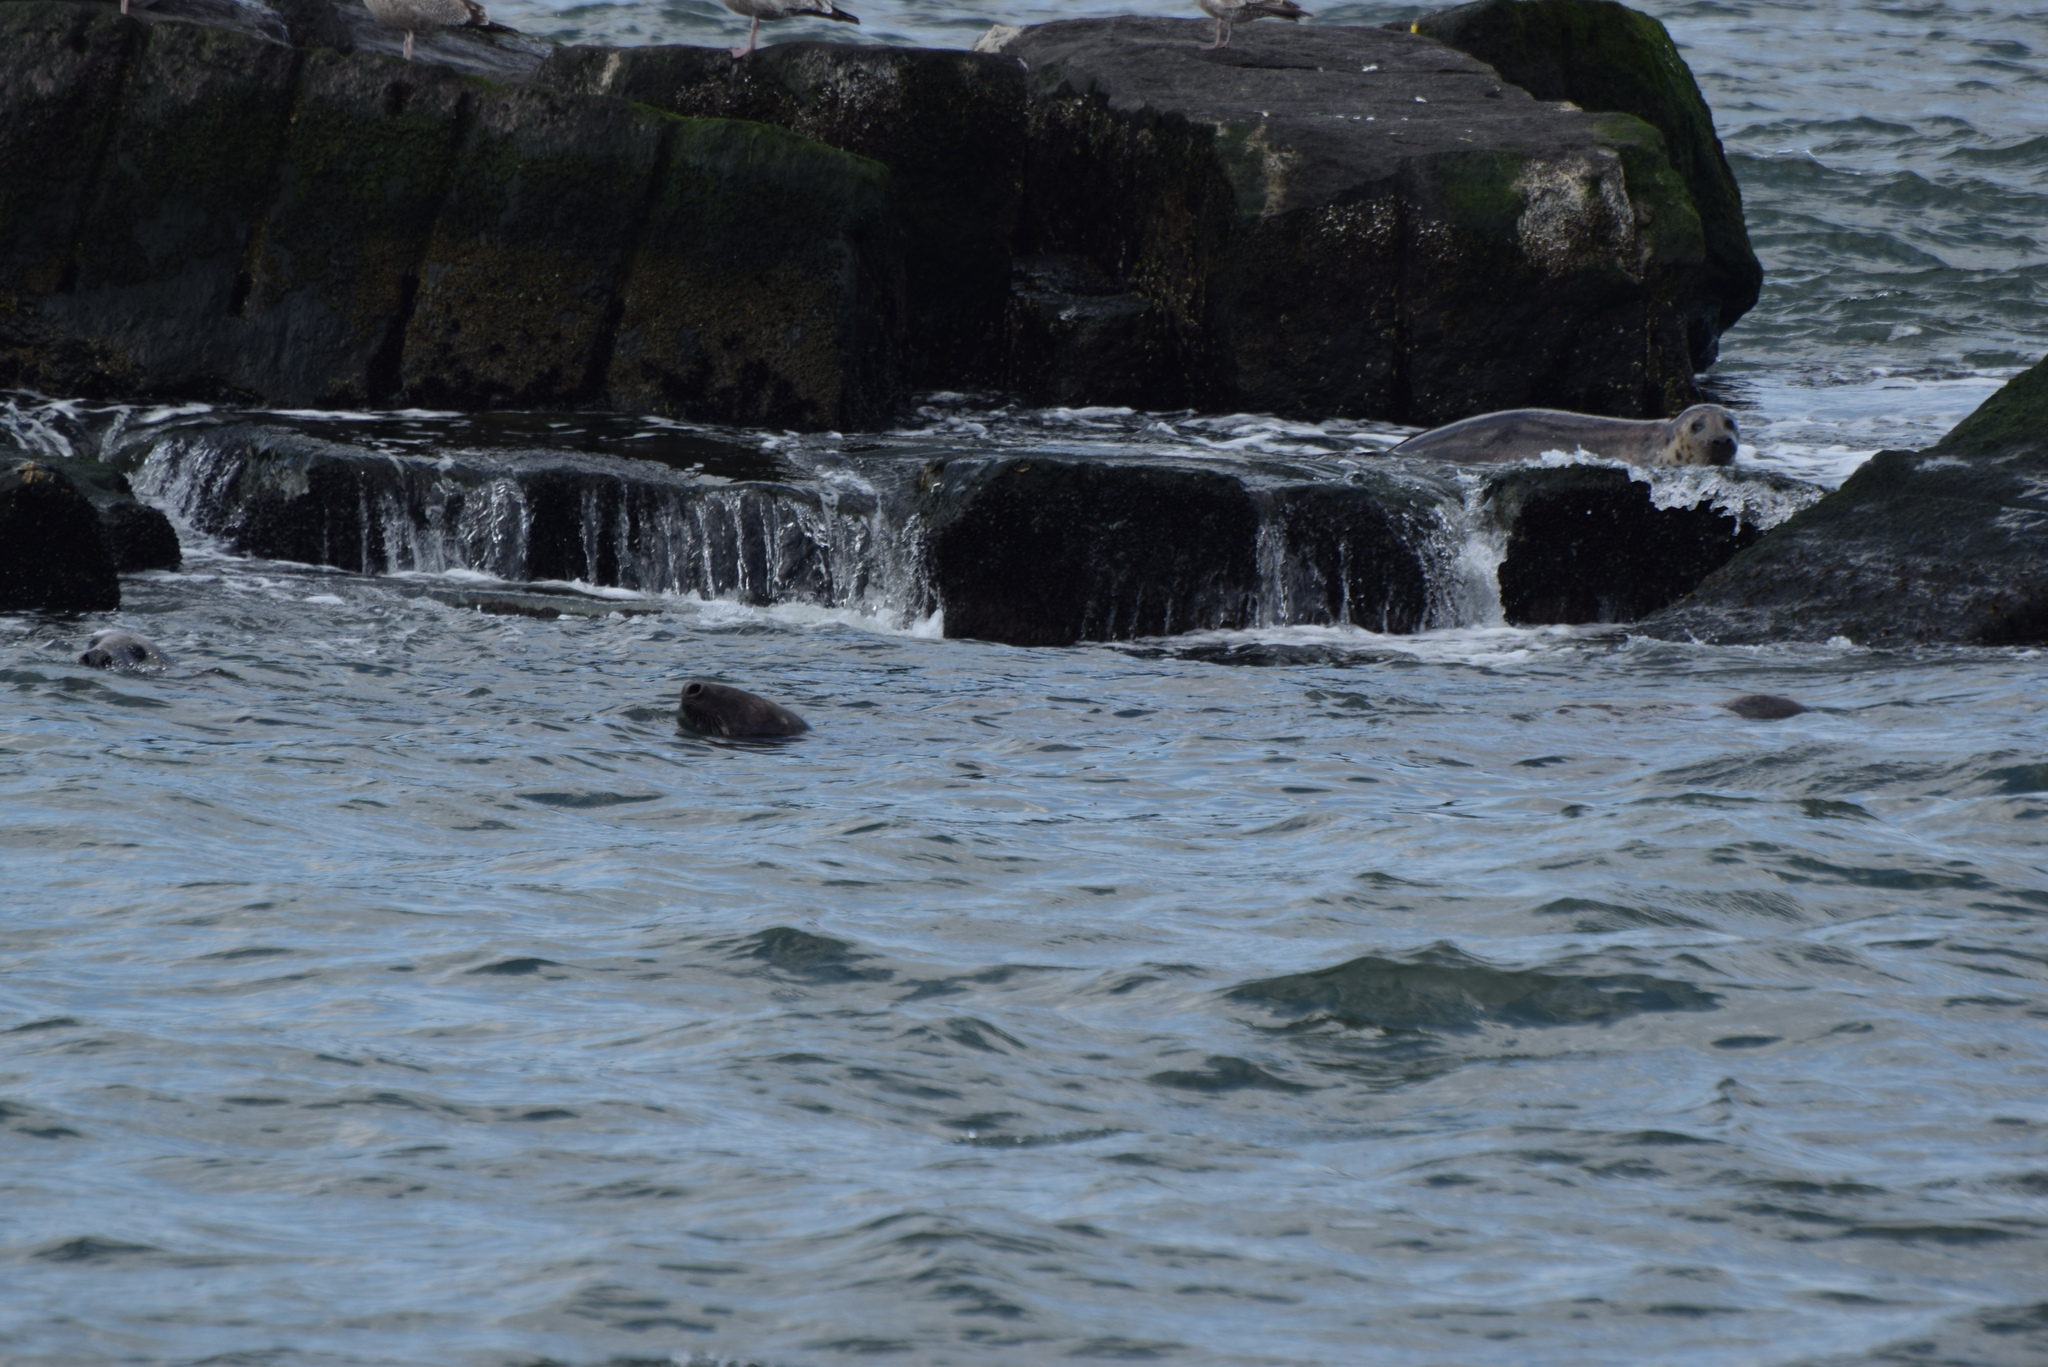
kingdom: Animalia
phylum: Chordata
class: Mammalia
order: Carnivora
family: Phocidae
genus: Halichoerus
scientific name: Halichoerus grypus
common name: Grey seal
